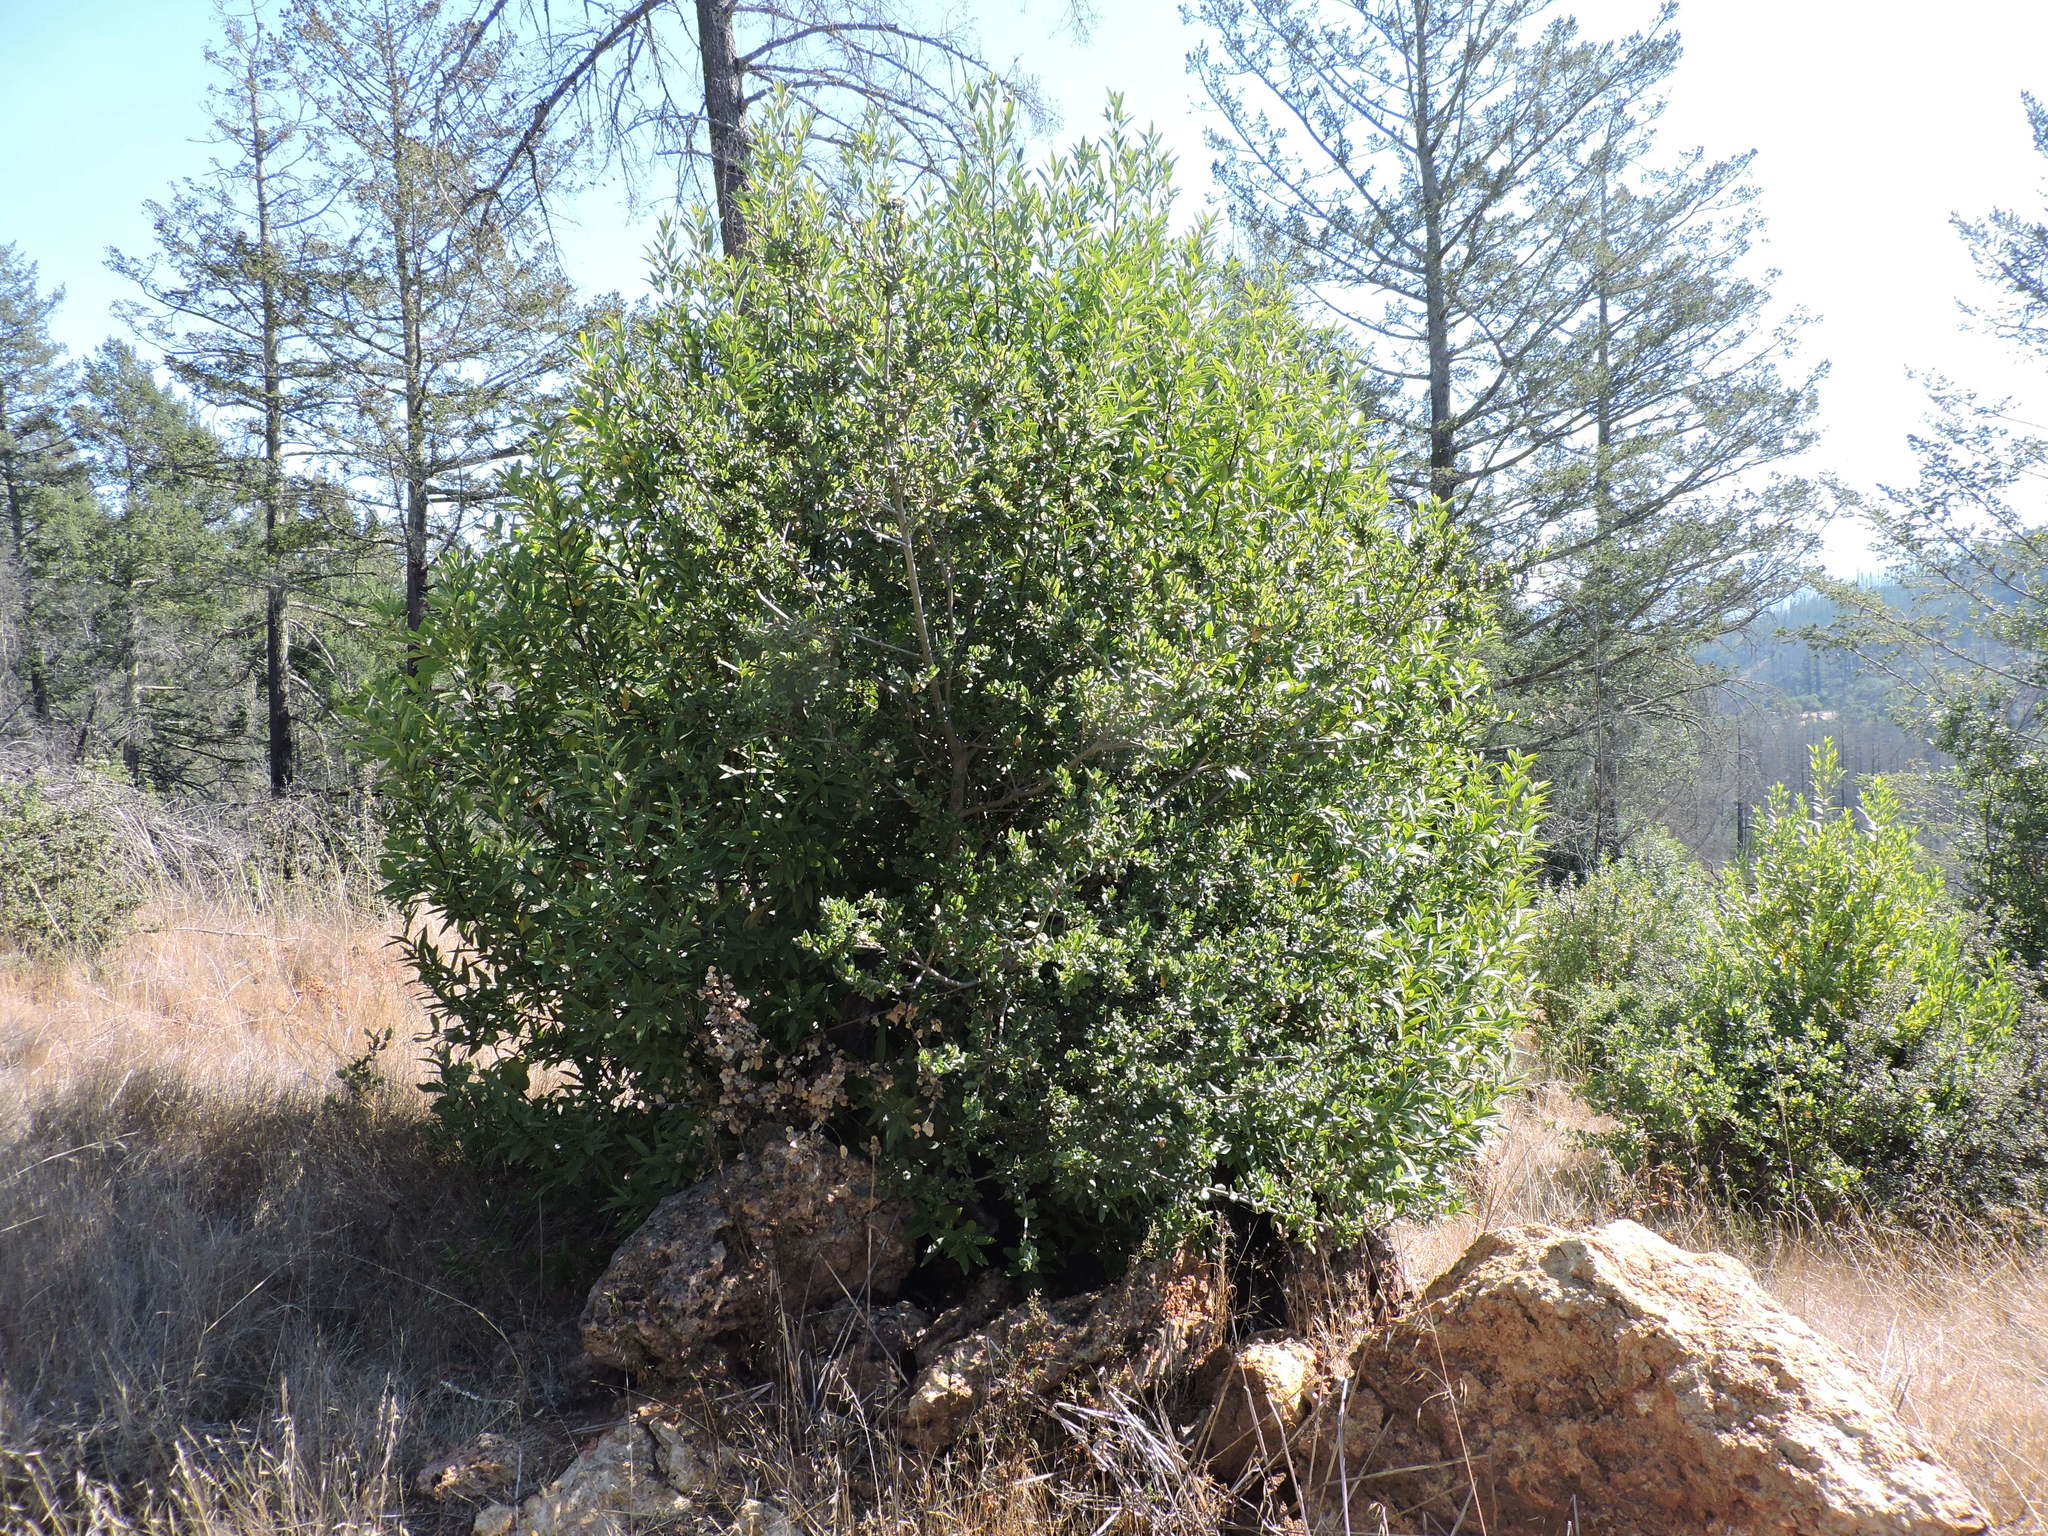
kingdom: Plantae
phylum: Tracheophyta
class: Magnoliopsida
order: Laurales
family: Lauraceae
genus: Umbellularia
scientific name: Umbellularia californica
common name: California bay
